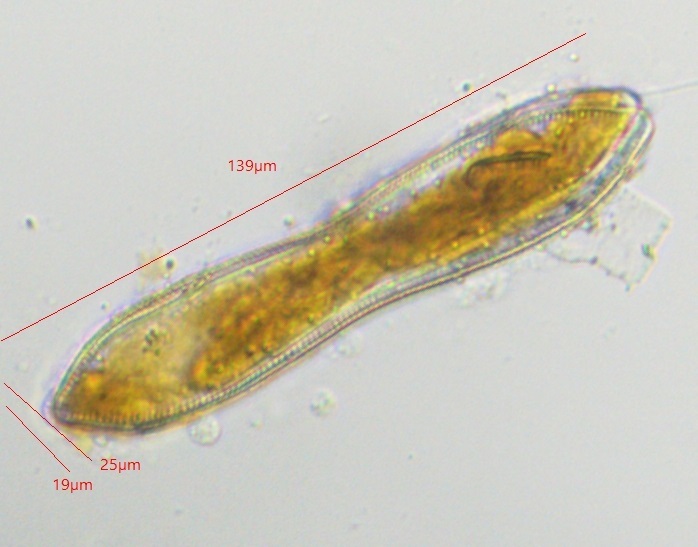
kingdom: Chromista
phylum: Ochrophyta
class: Bacillariophyceae
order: Surirellales
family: Surirellaceae
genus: Surirella
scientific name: Surirella librile
